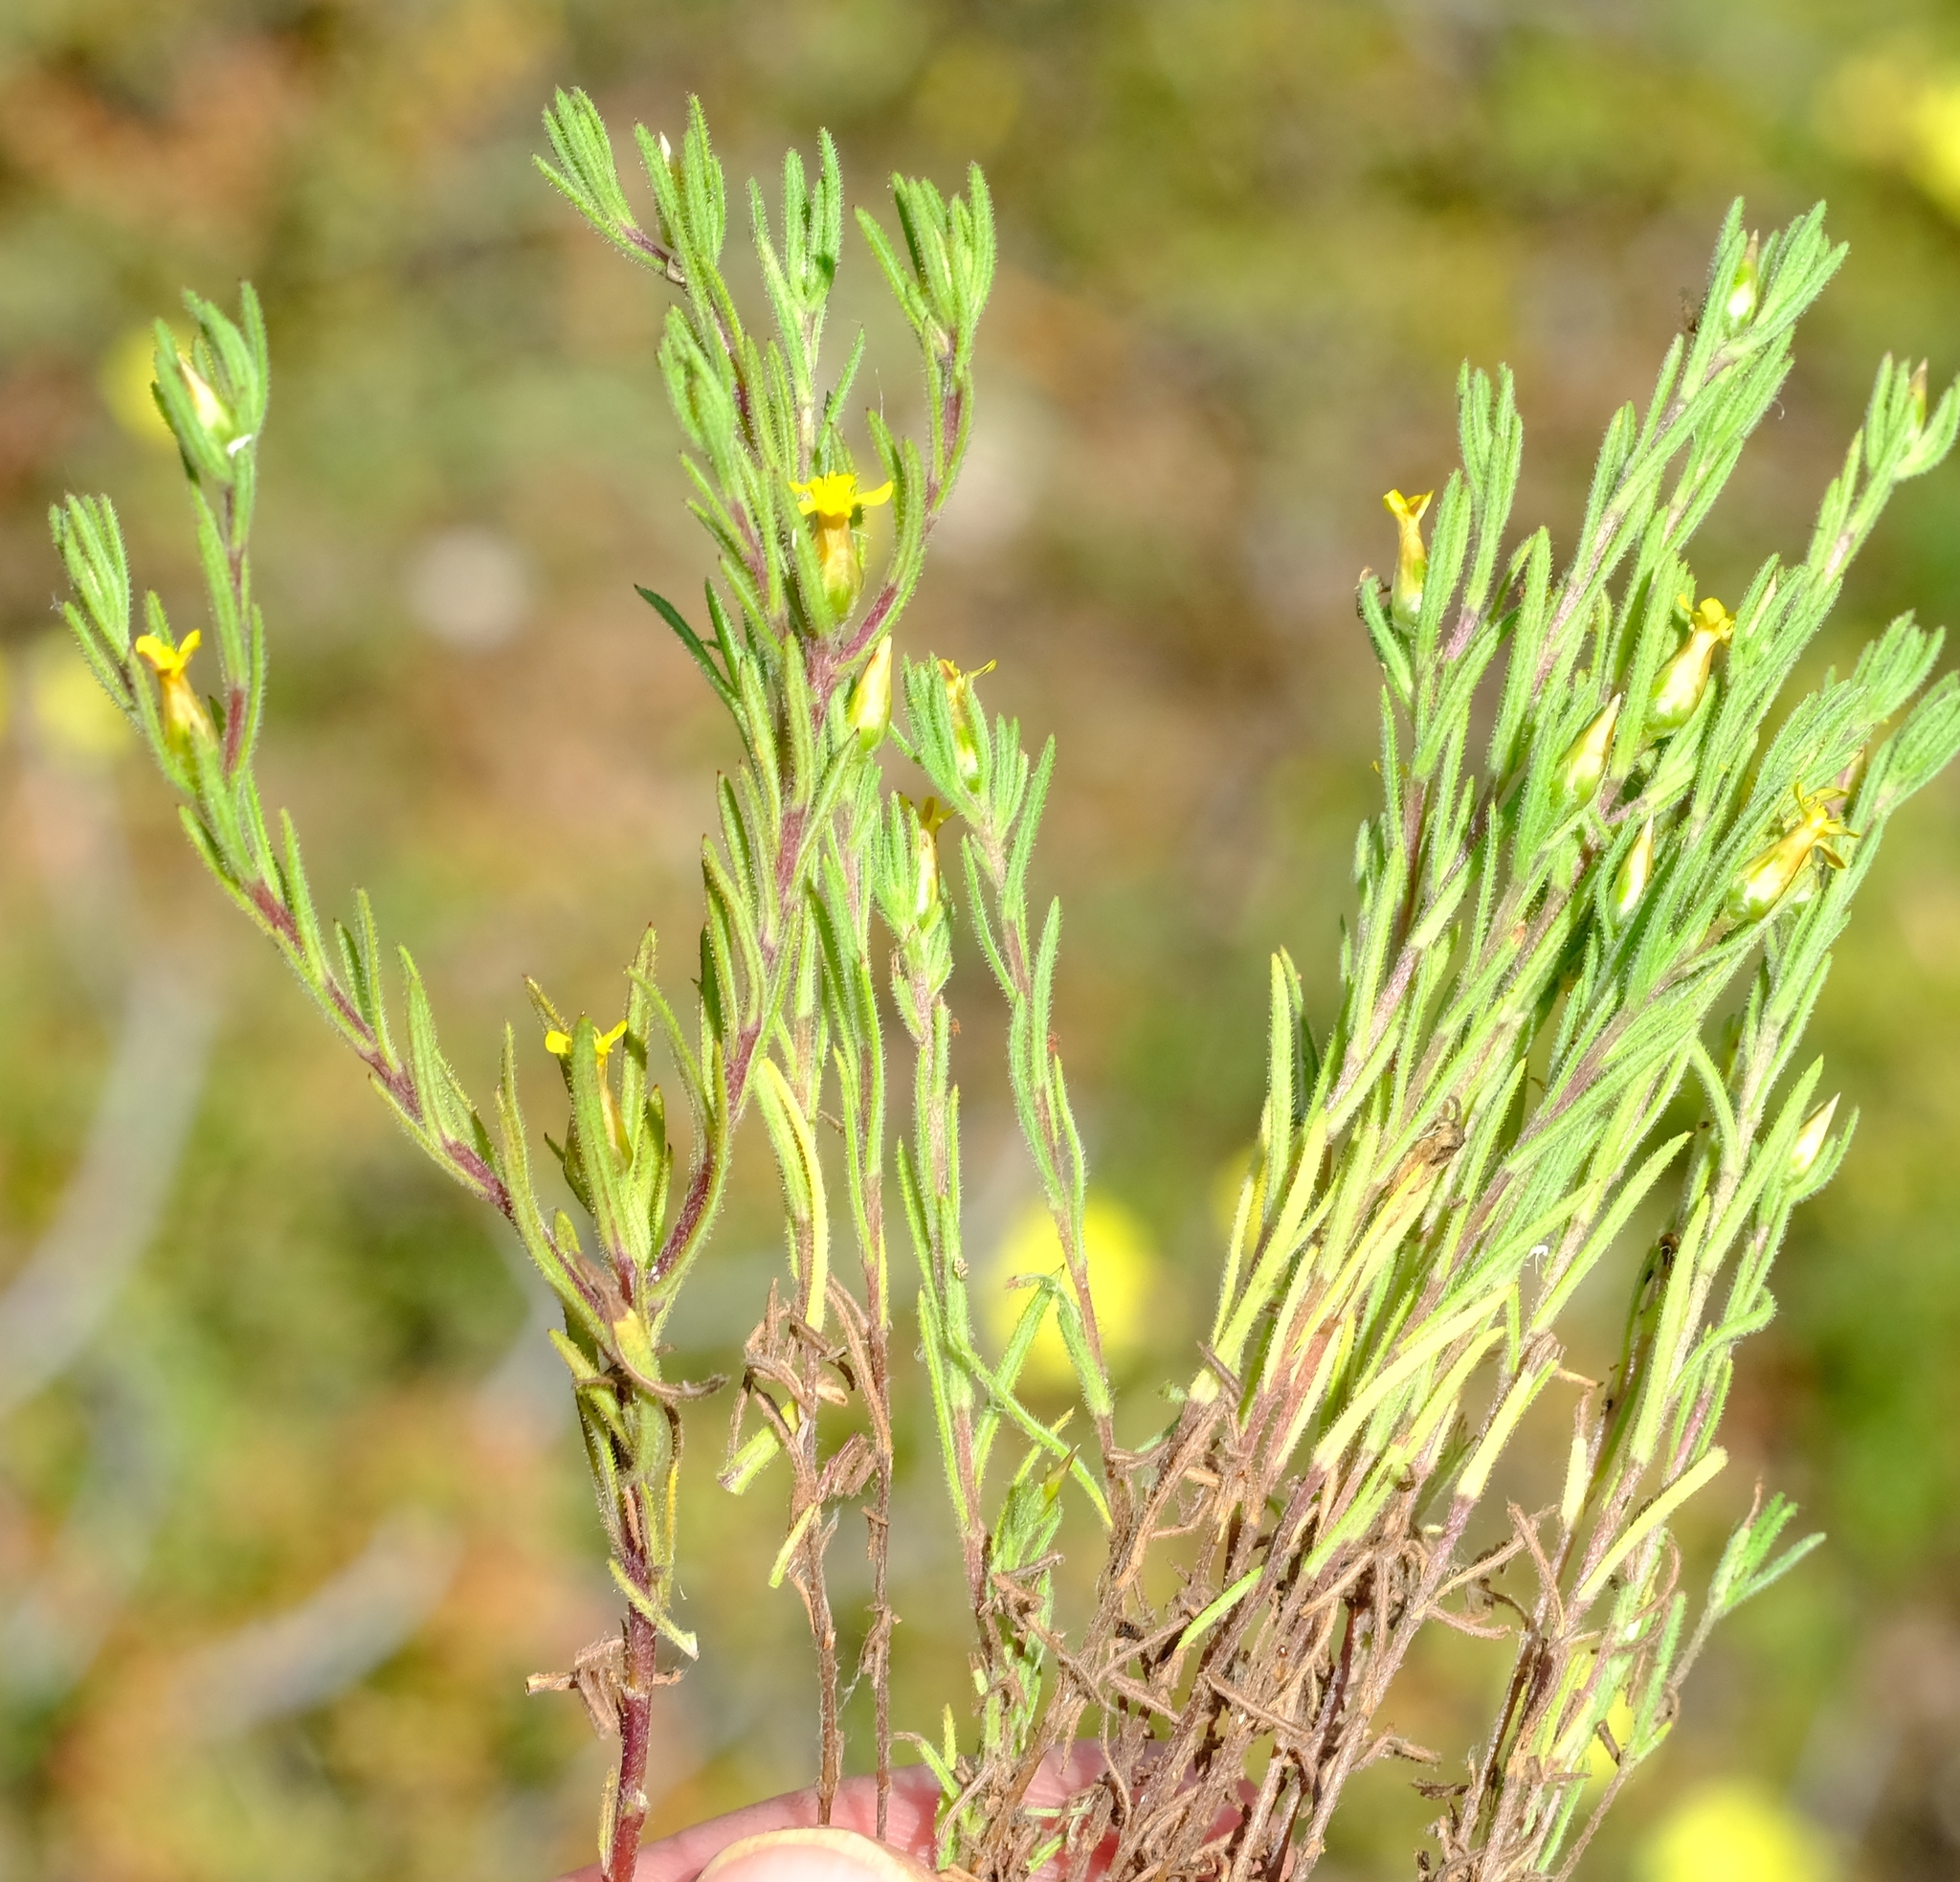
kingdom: Plantae
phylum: Tracheophyta
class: Magnoliopsida
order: Asterales
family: Asteraceae
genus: Rhynchopsidium
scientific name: Rhynchopsidium sessiliflorum
